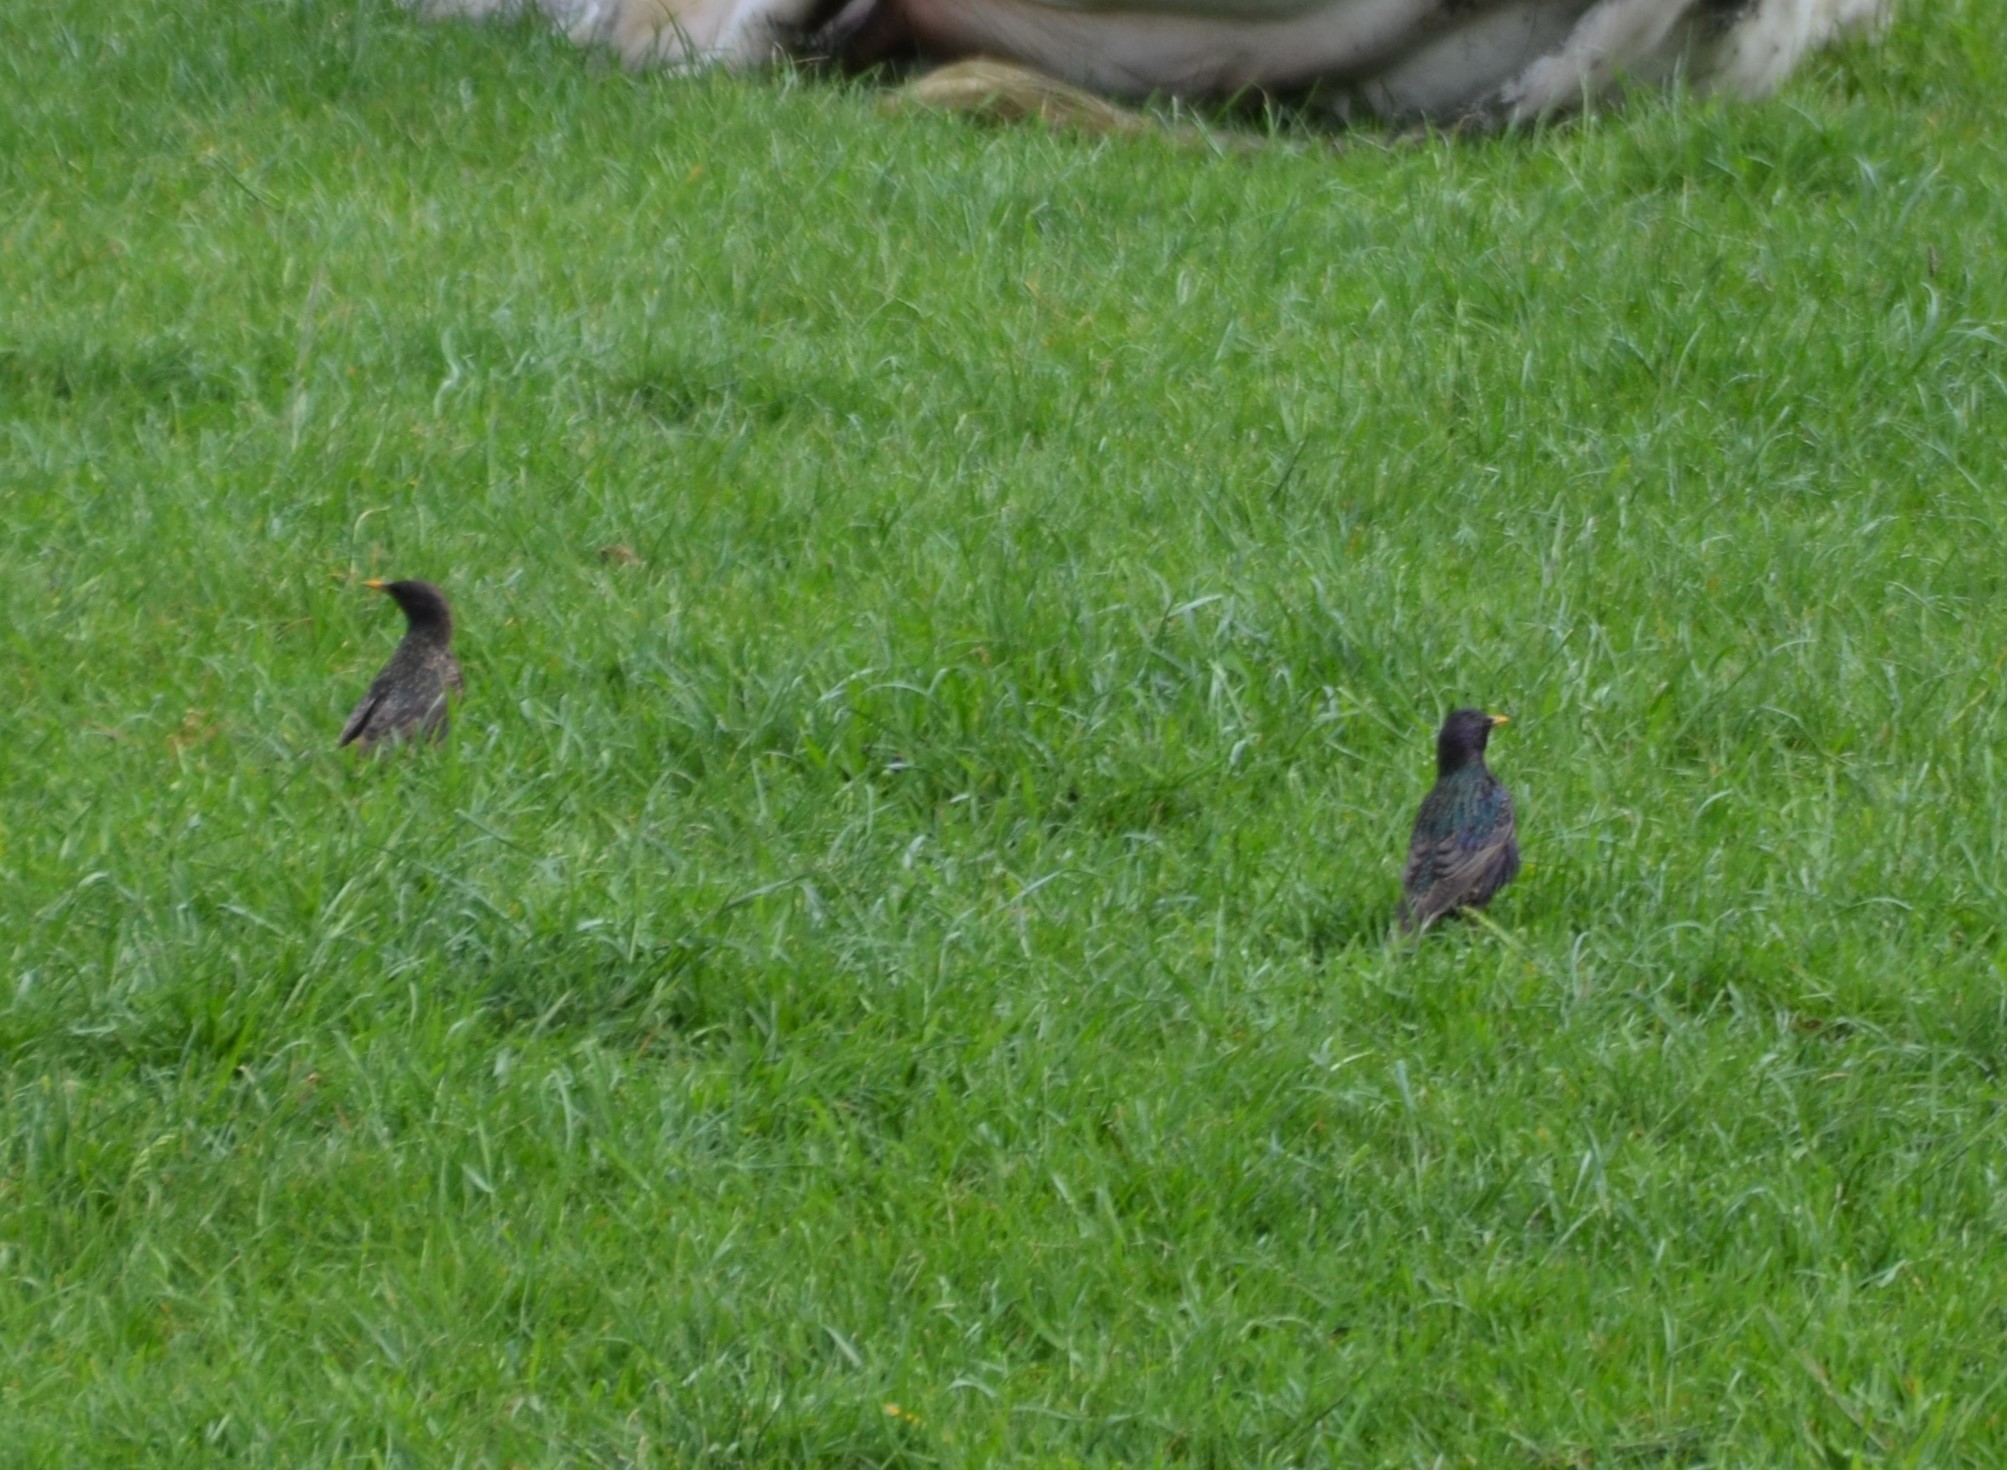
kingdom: Animalia
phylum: Chordata
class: Aves
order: Passeriformes
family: Sturnidae
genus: Sturnus
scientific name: Sturnus vulgaris
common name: Common starling
